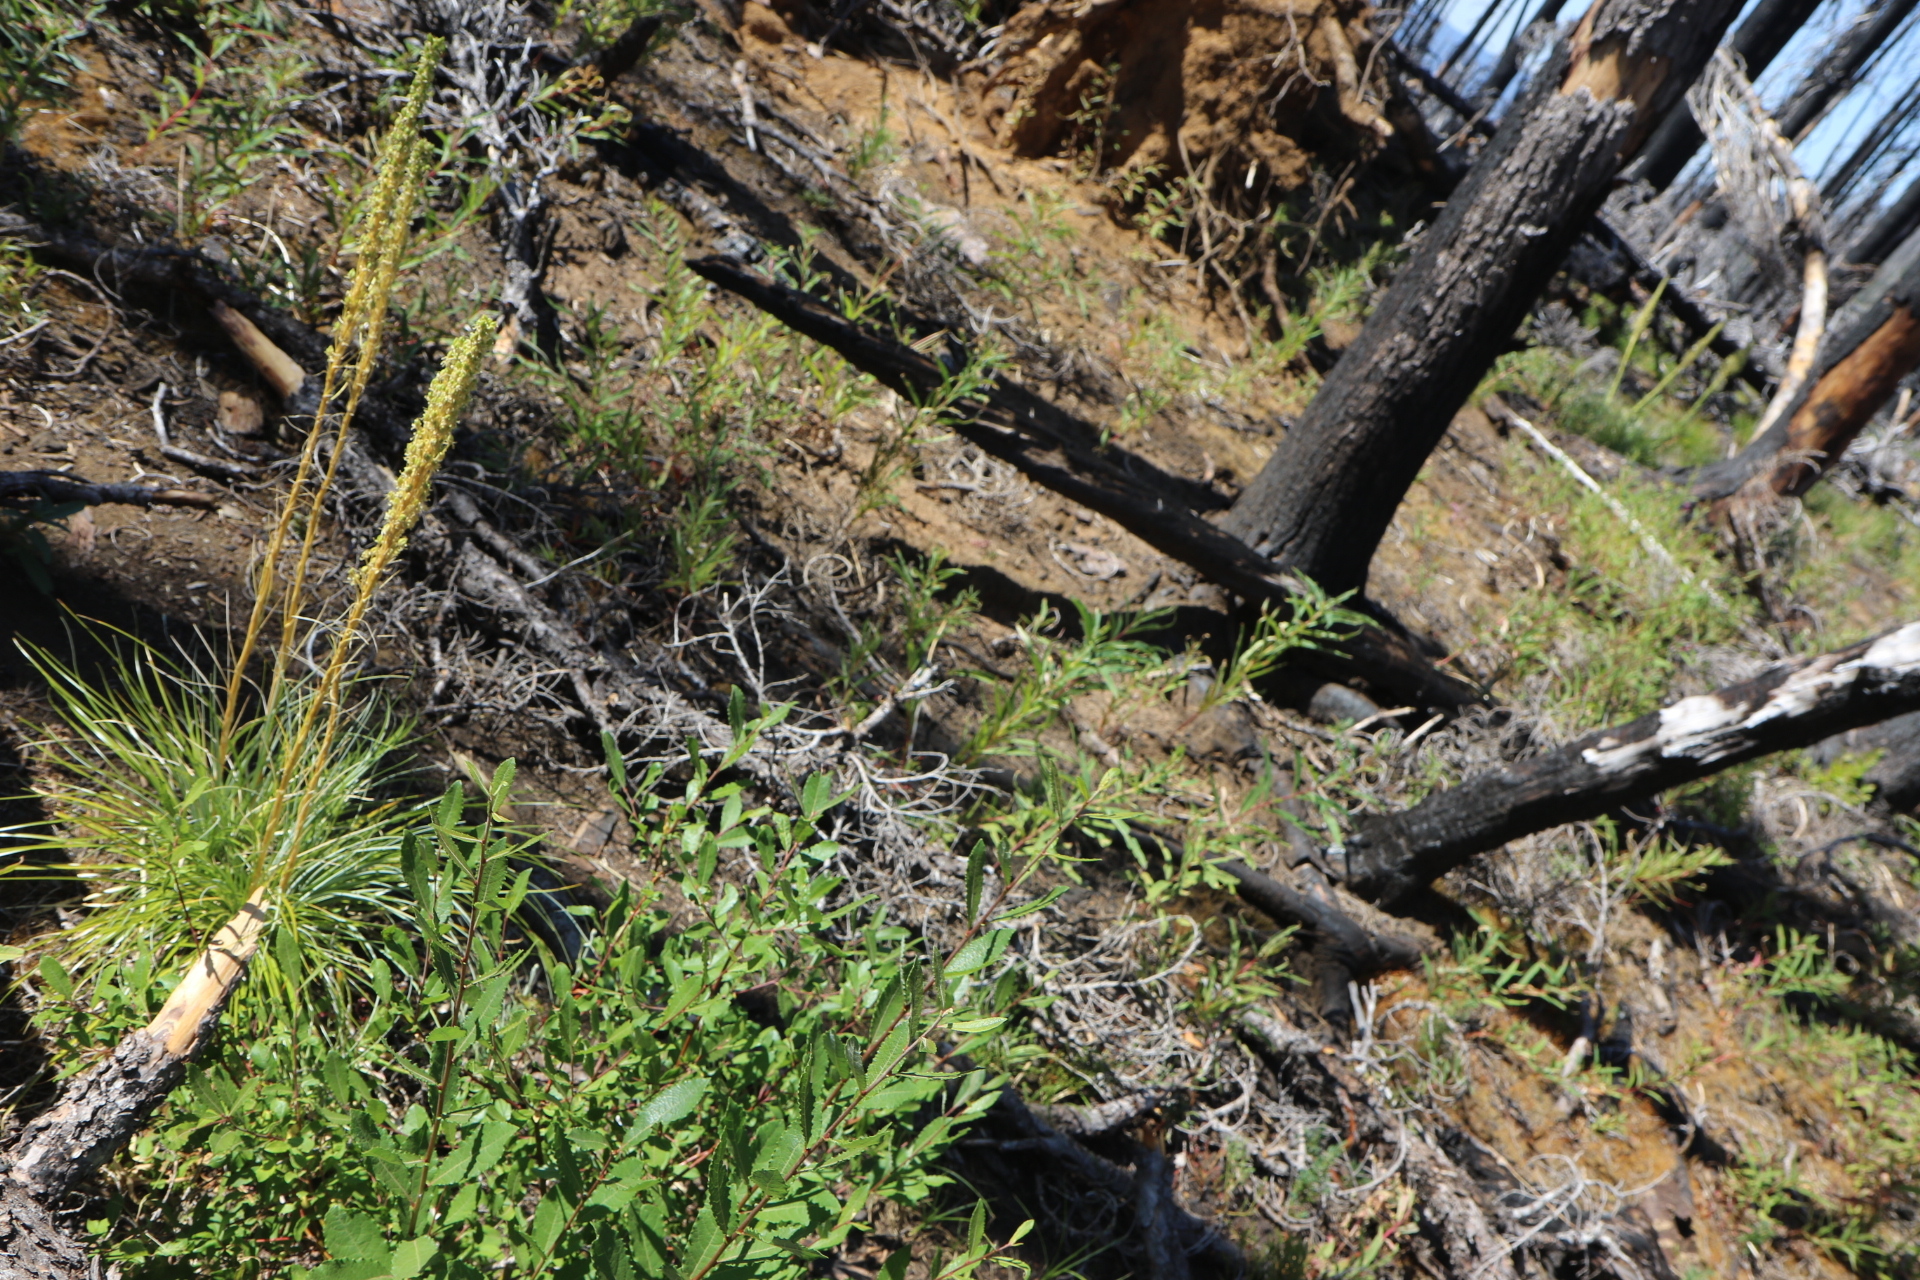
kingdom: Plantae
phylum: Tracheophyta
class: Liliopsida
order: Liliales
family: Melanthiaceae
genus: Xerophyllum
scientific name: Xerophyllum tenax
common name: Bear-grass
